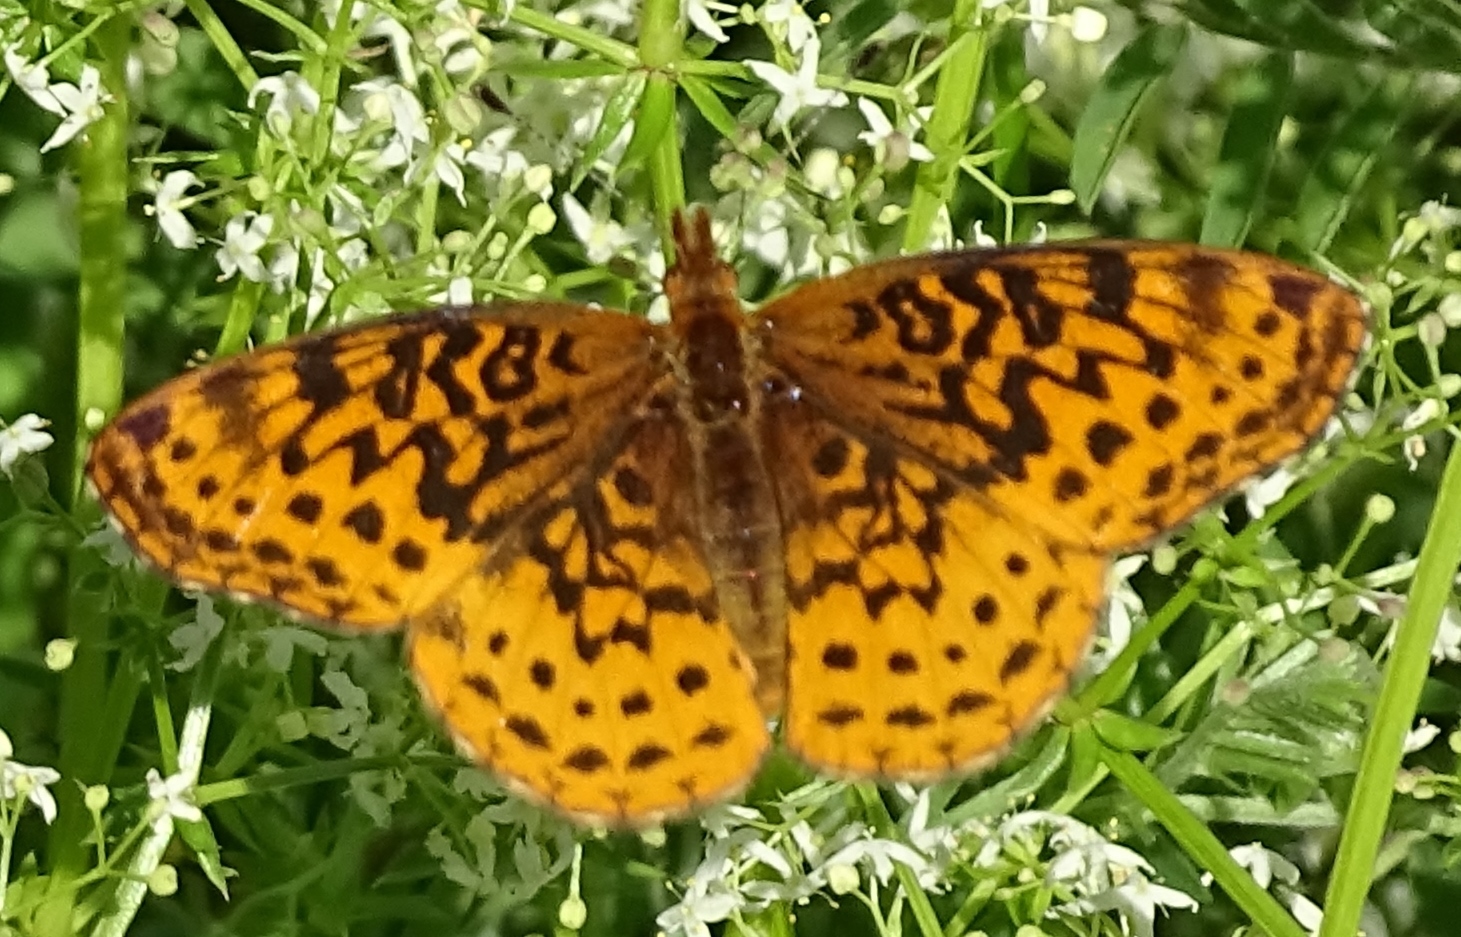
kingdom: Animalia
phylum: Arthropoda
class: Insecta
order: Lepidoptera
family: Nymphalidae
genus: Clossiana
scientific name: Clossiana toddi
